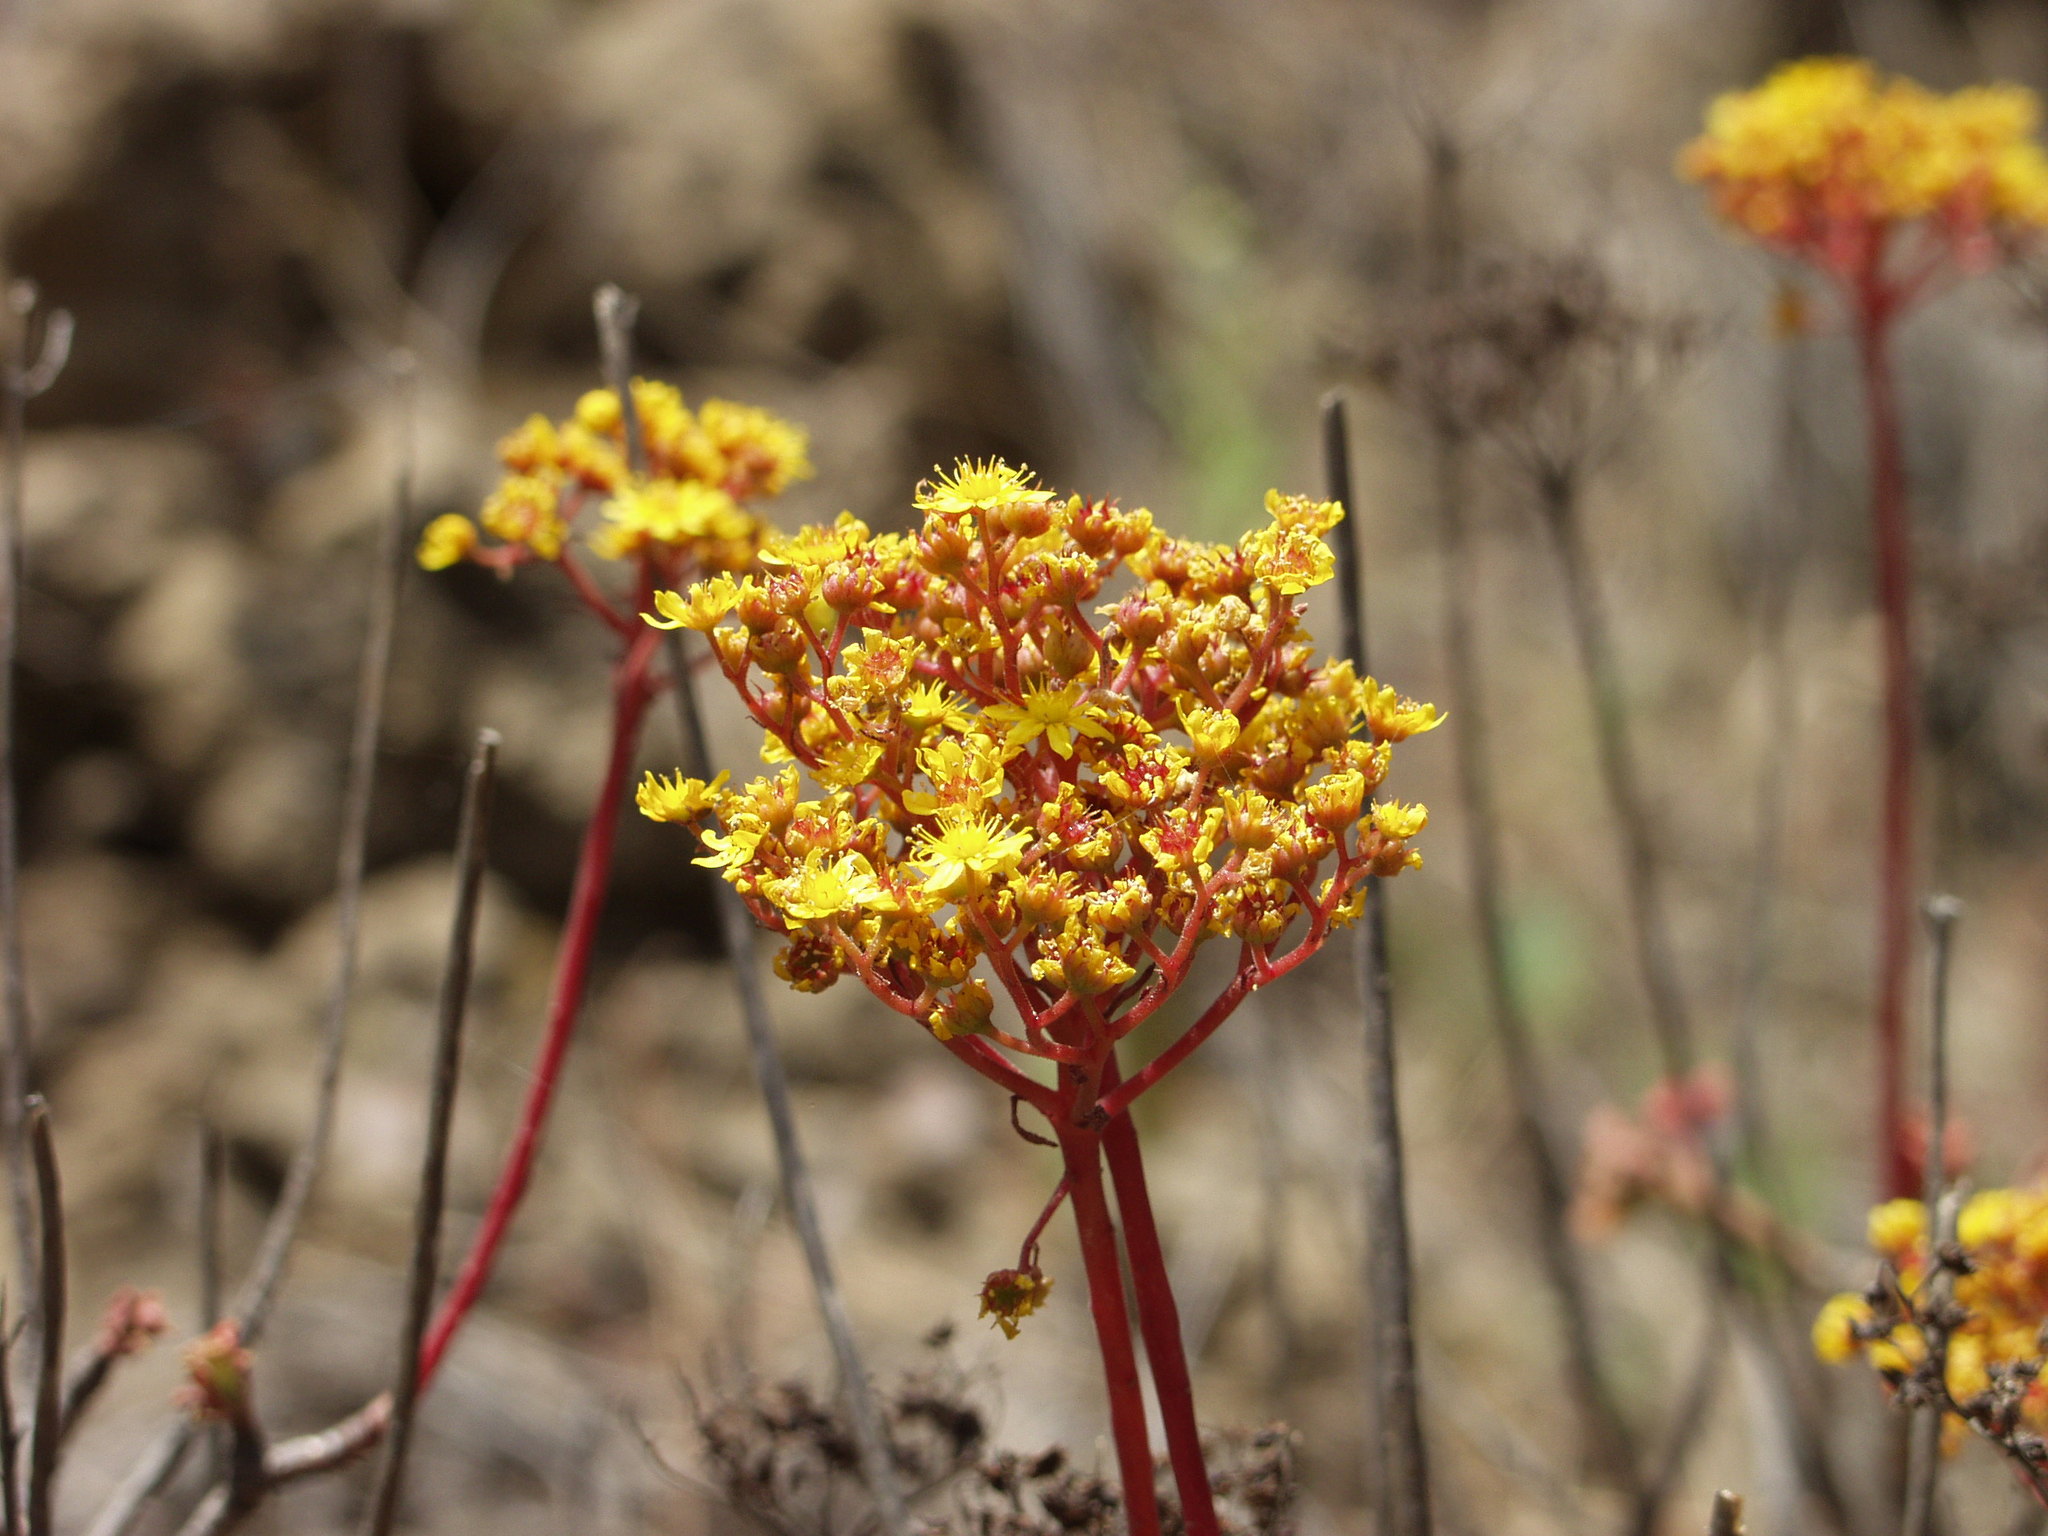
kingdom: Plantae
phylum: Tracheophyta
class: Magnoliopsida
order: Saxifragales
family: Crassulaceae
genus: Aeonium
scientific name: Aeonium spathulatum
